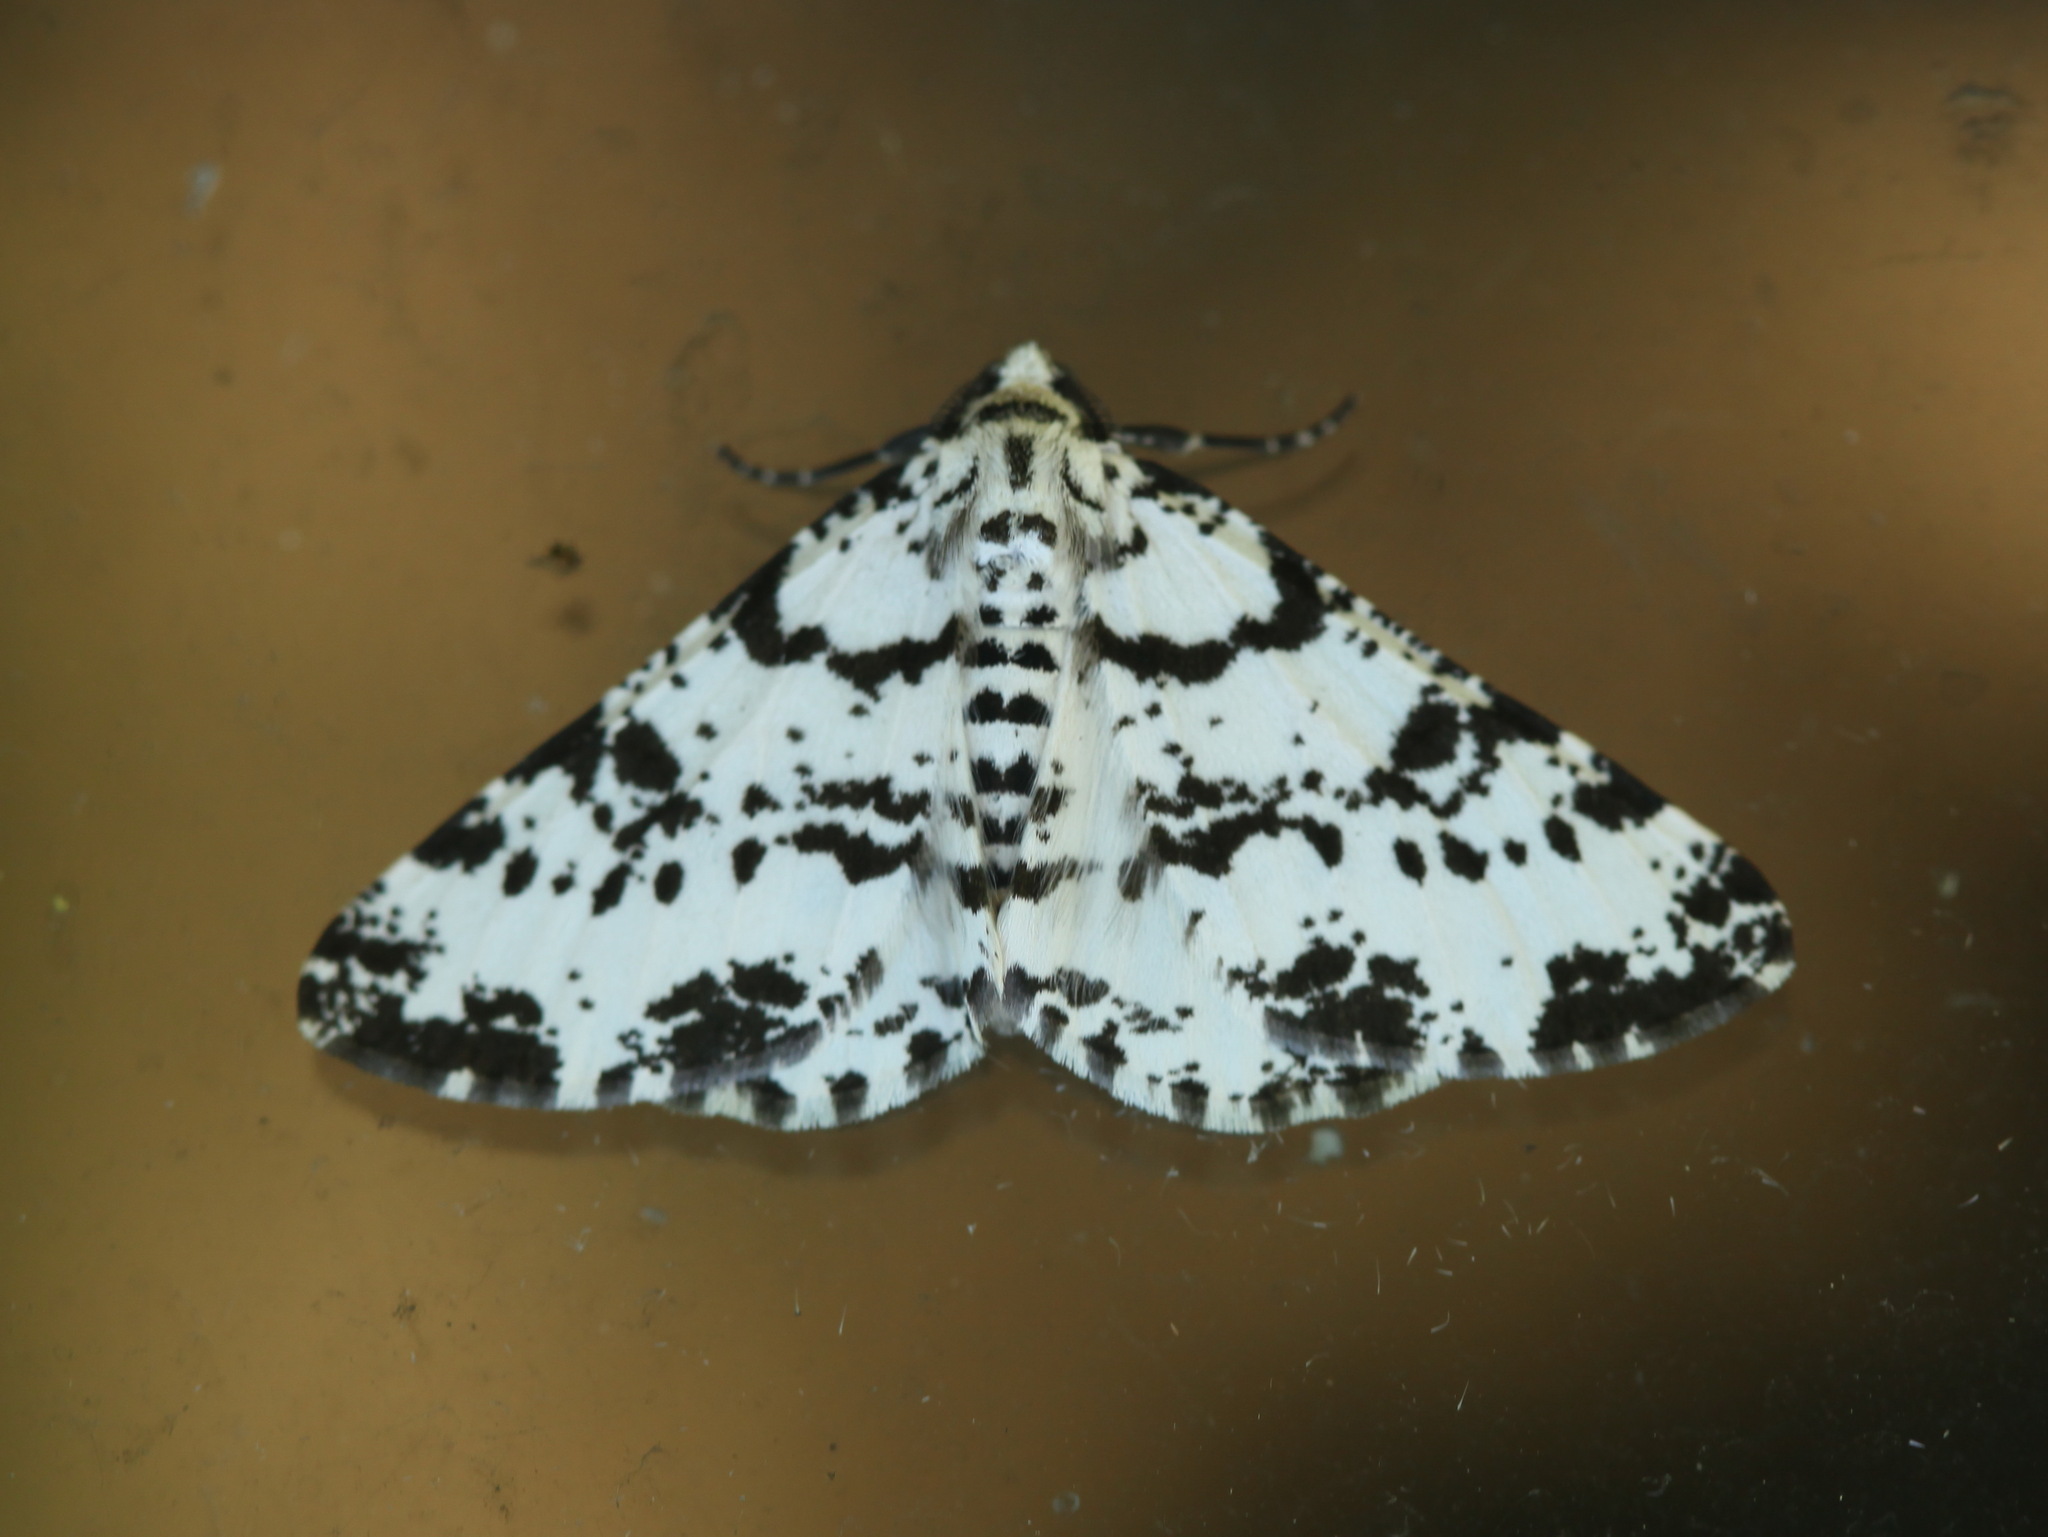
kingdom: Animalia
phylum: Arthropoda
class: Insecta
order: Lepidoptera
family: Geometridae
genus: Deileptenia
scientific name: Deileptenia mandshuriaria
